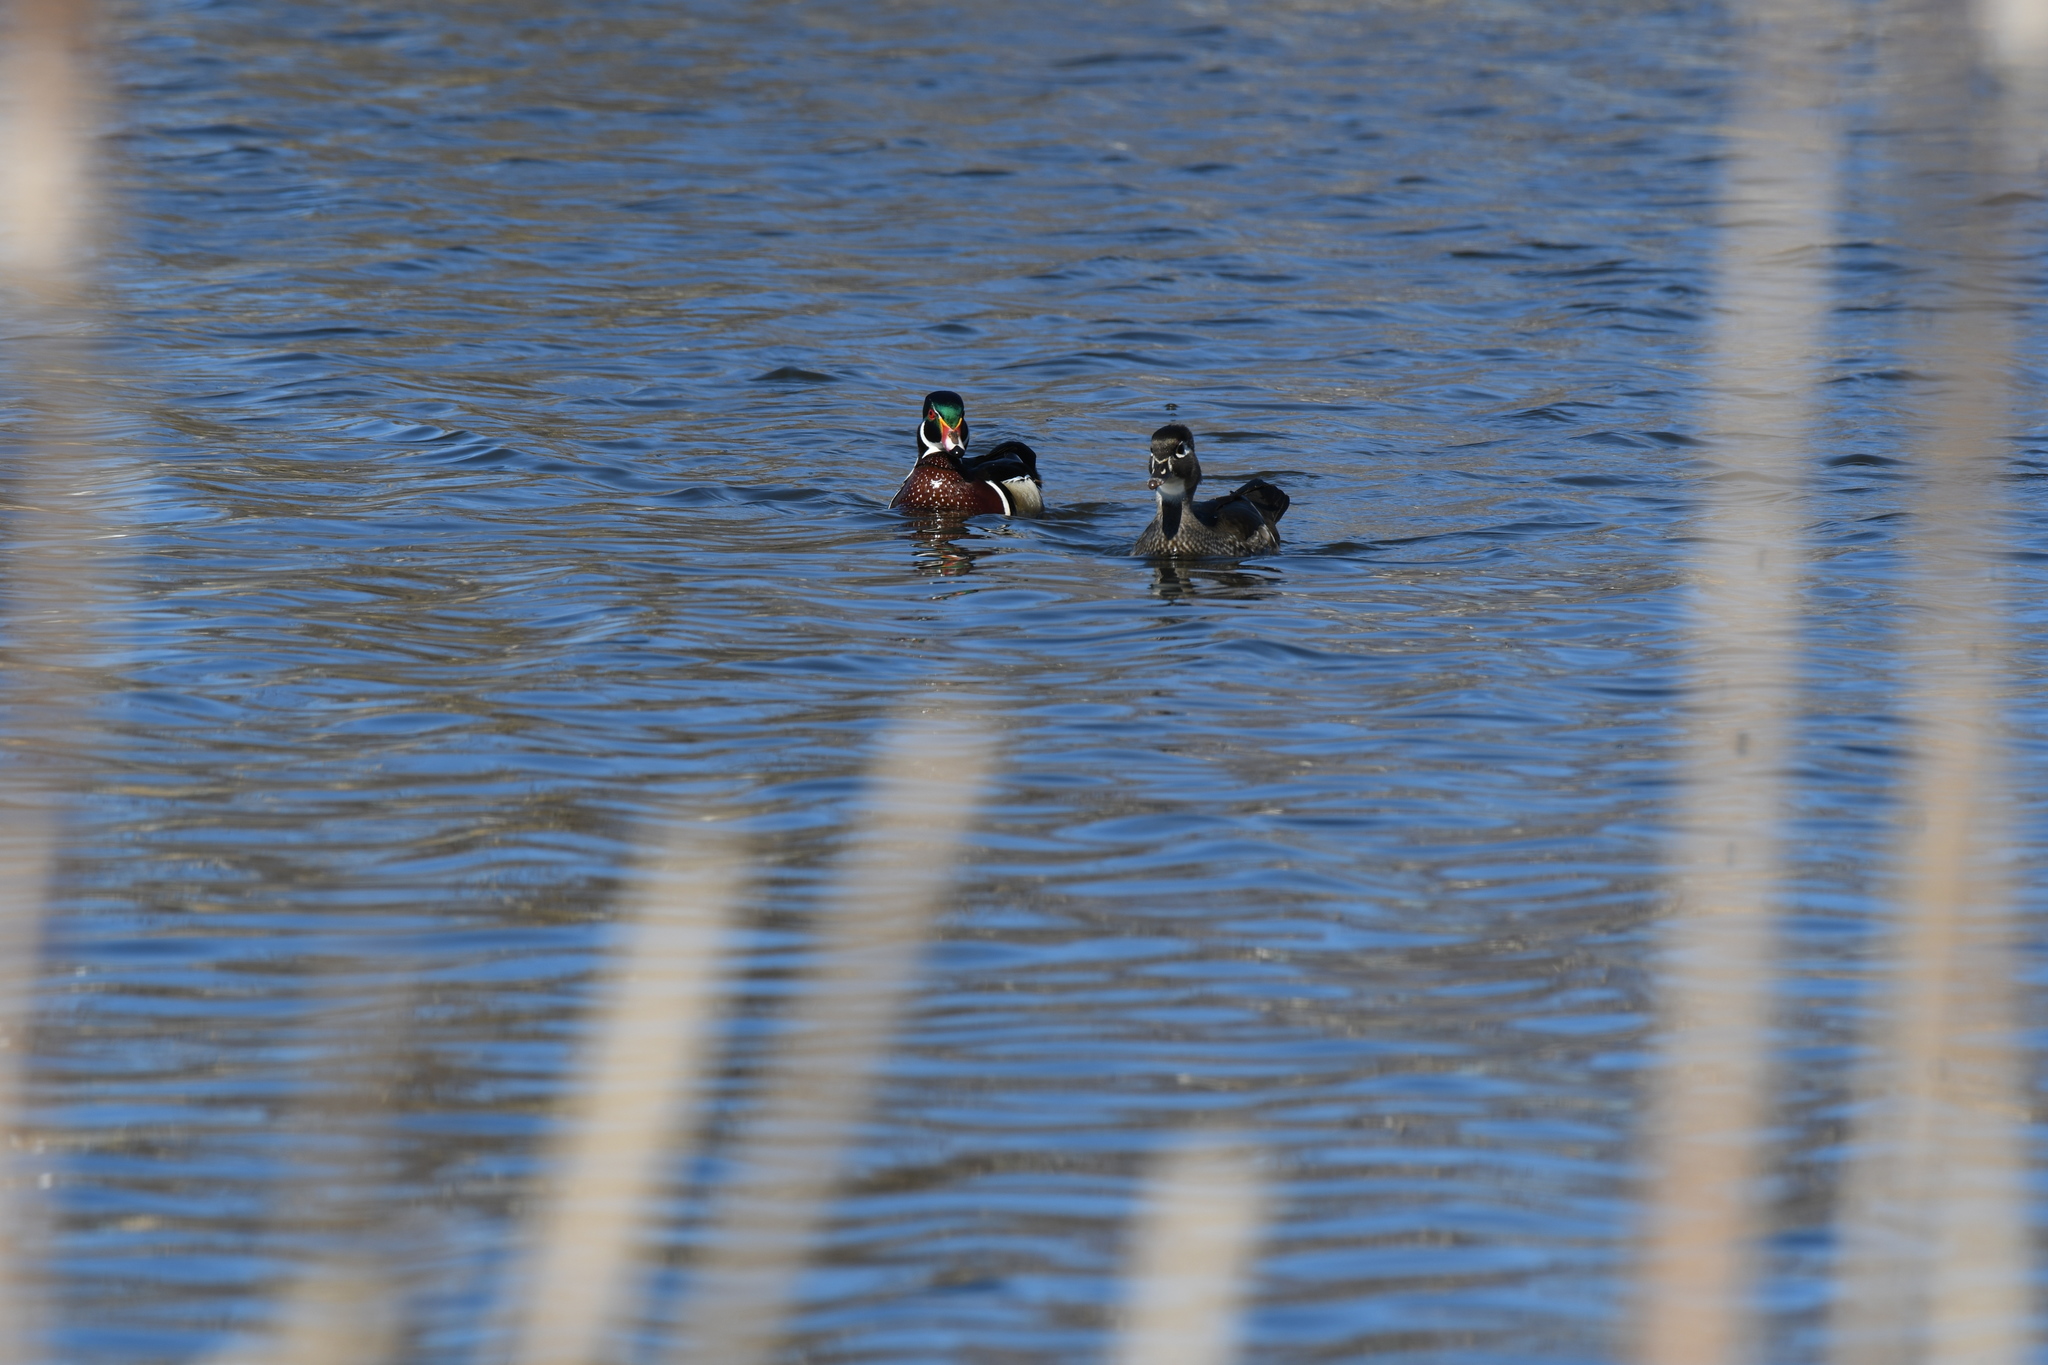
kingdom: Animalia
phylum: Chordata
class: Aves
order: Anseriformes
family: Anatidae
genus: Aix
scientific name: Aix sponsa
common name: Wood duck
